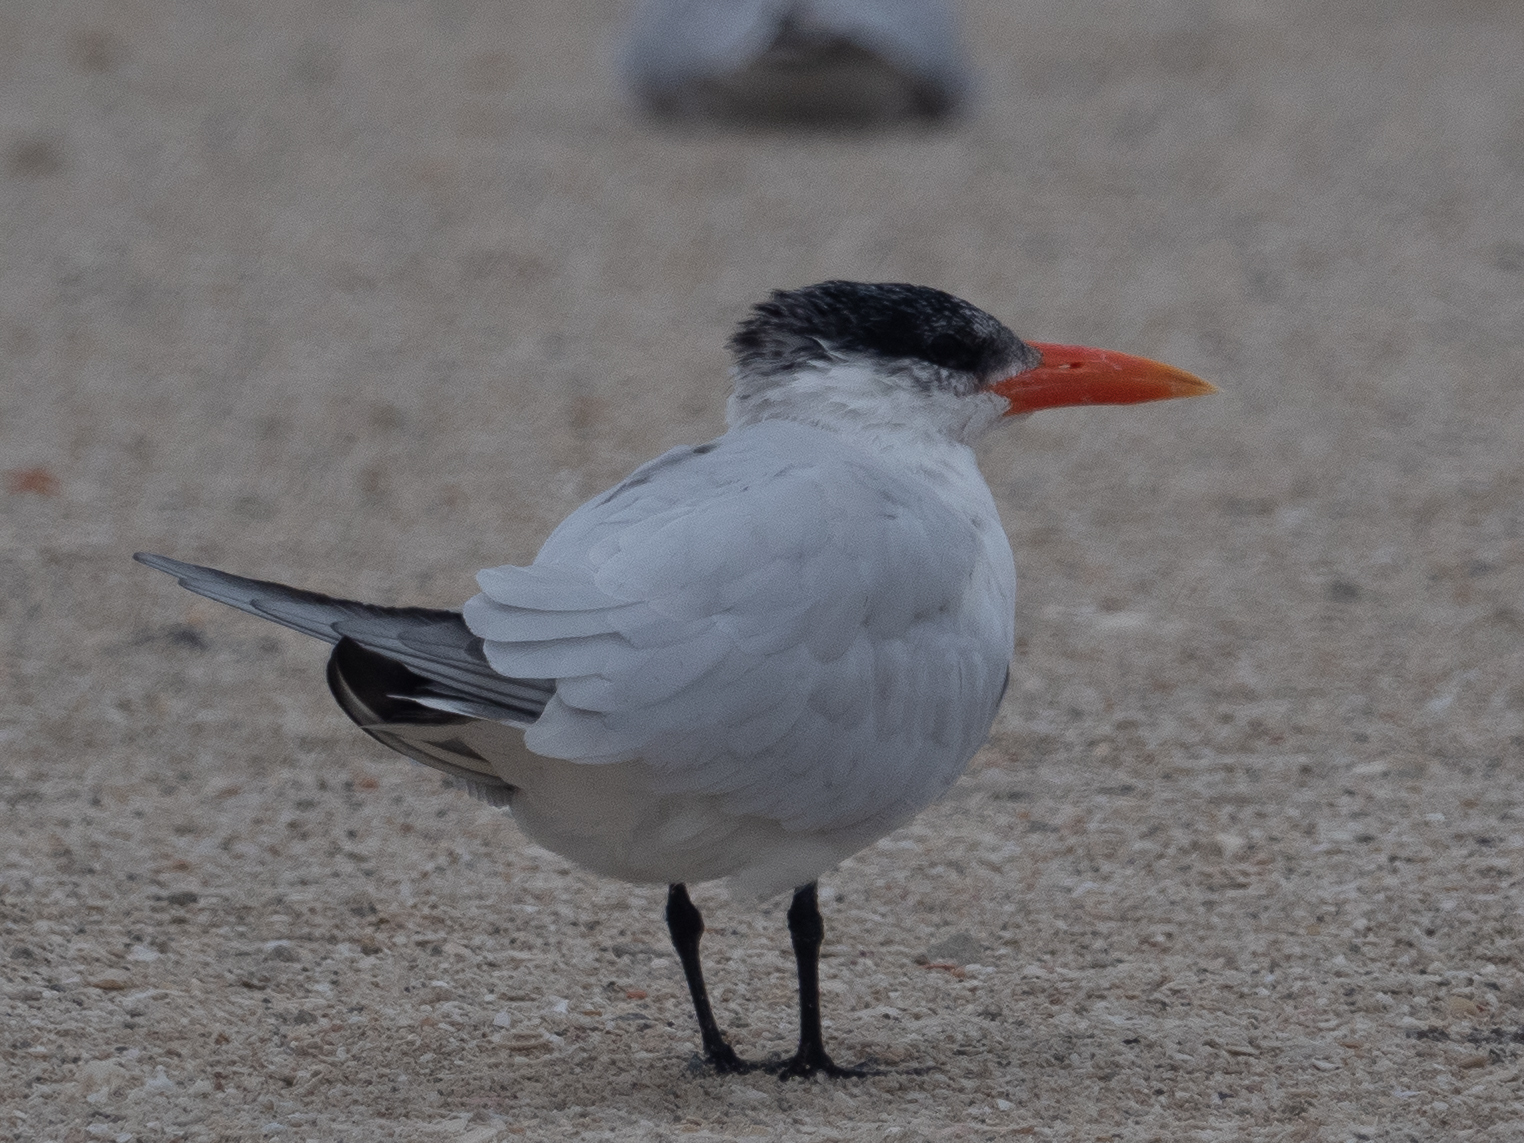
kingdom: Animalia
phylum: Chordata
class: Aves
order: Charadriiformes
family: Laridae
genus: Hydroprogne
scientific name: Hydroprogne caspia
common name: Caspian tern
